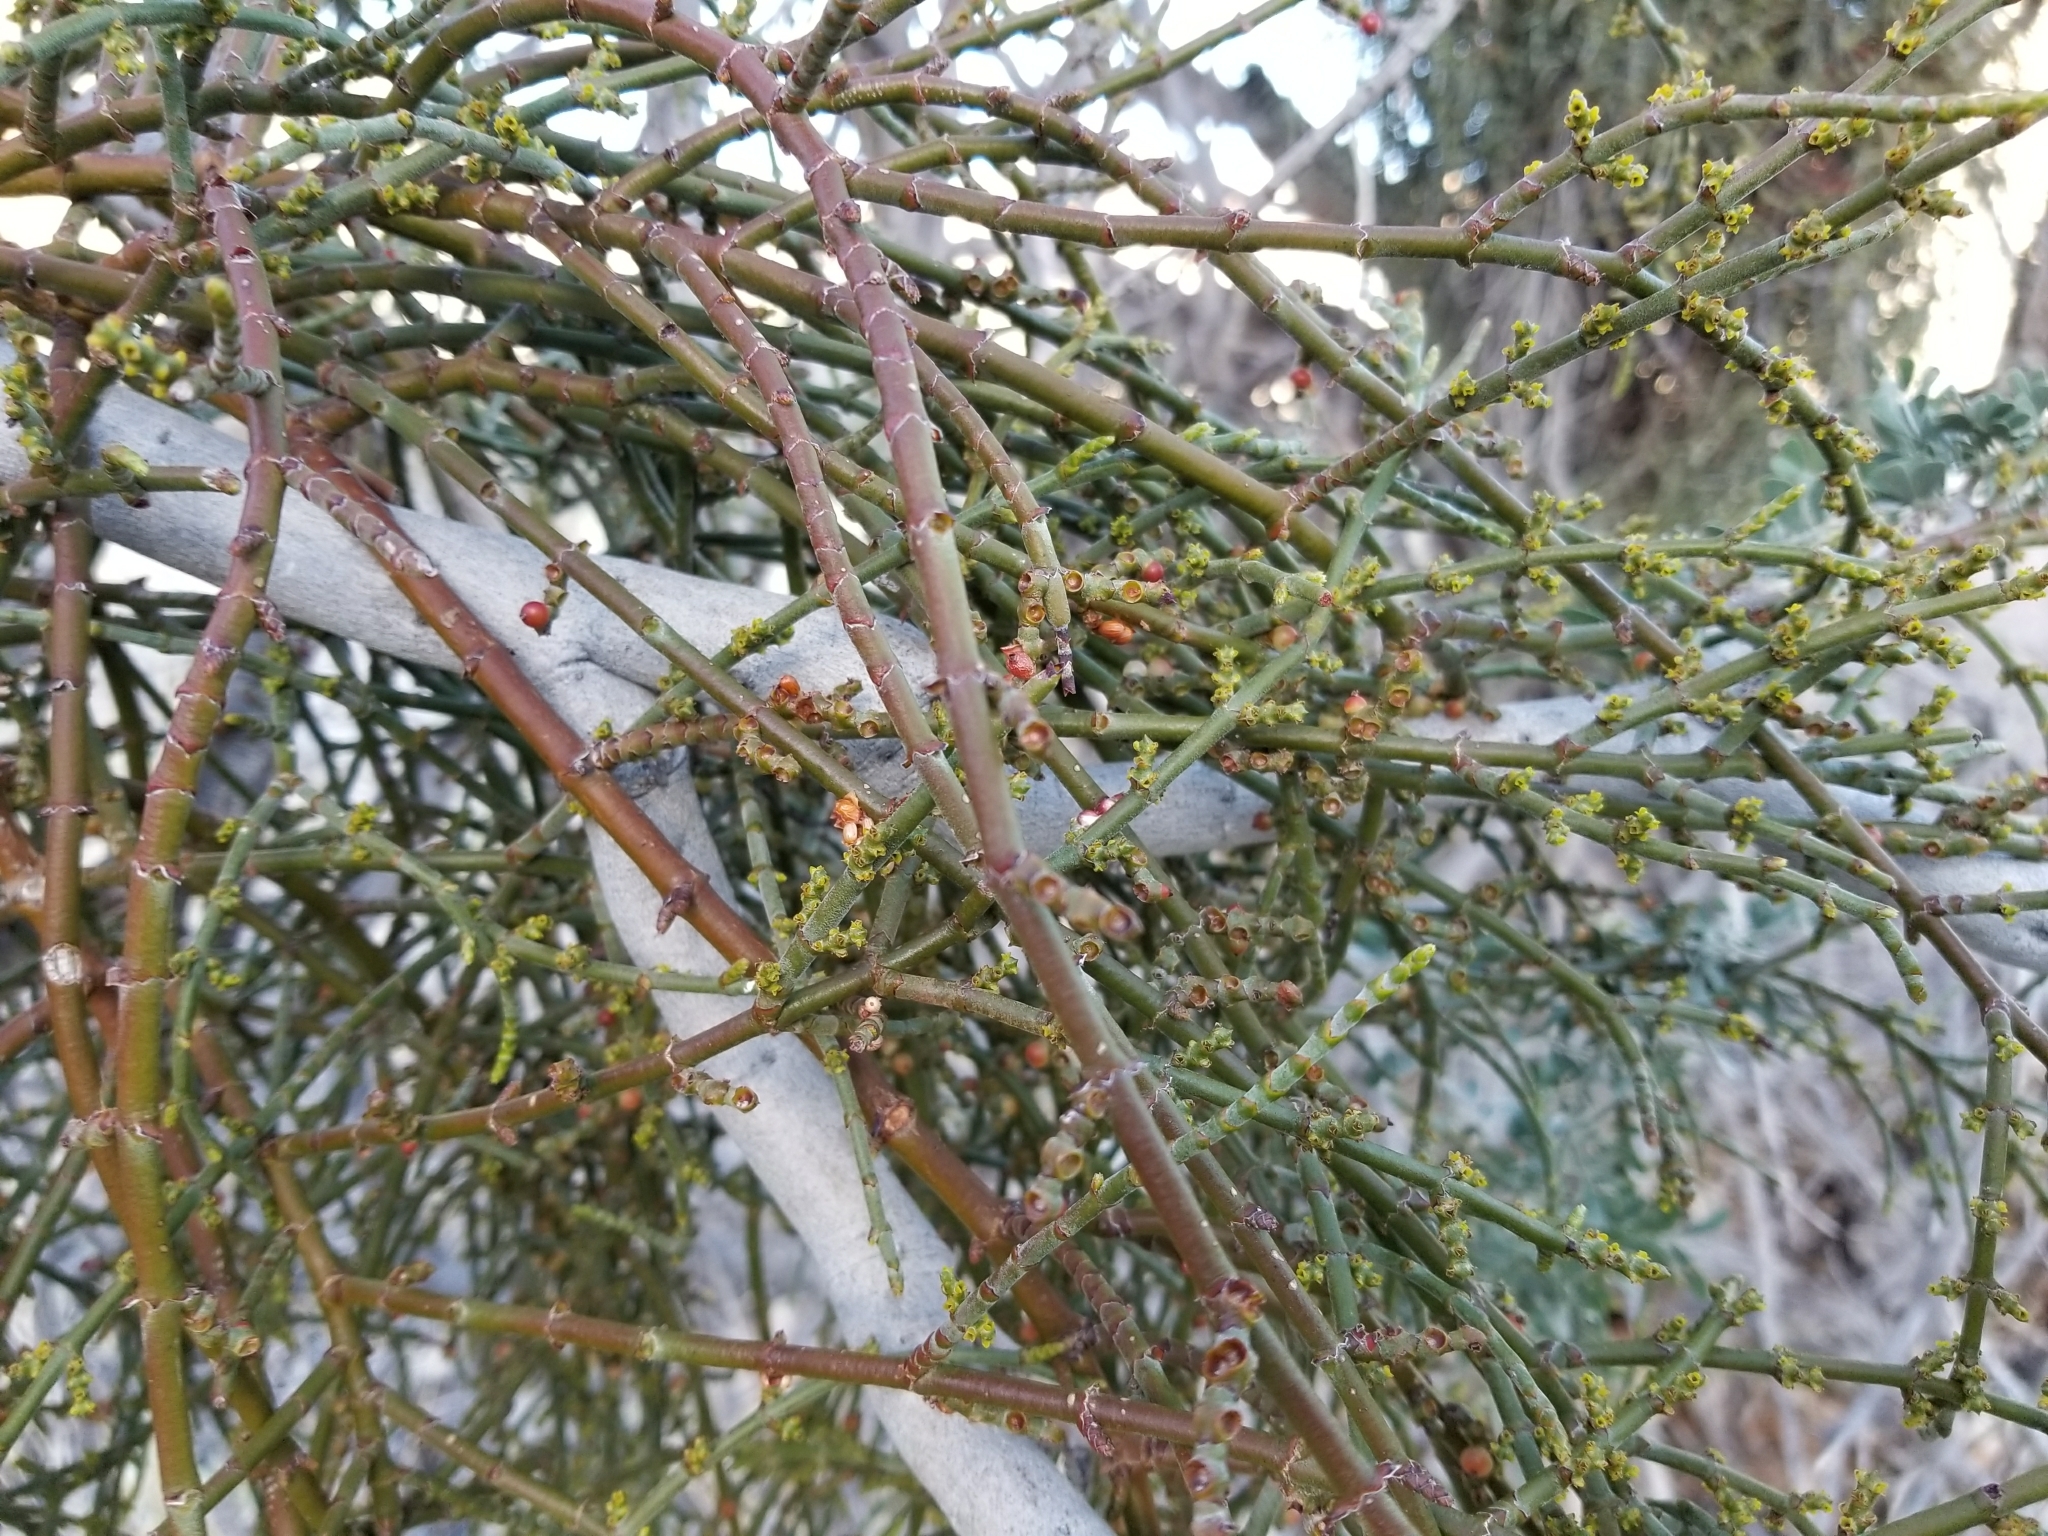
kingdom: Plantae
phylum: Tracheophyta
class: Magnoliopsida
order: Santalales
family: Viscaceae
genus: Phoradendron
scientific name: Phoradendron californicum
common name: Acacia mistletoe
